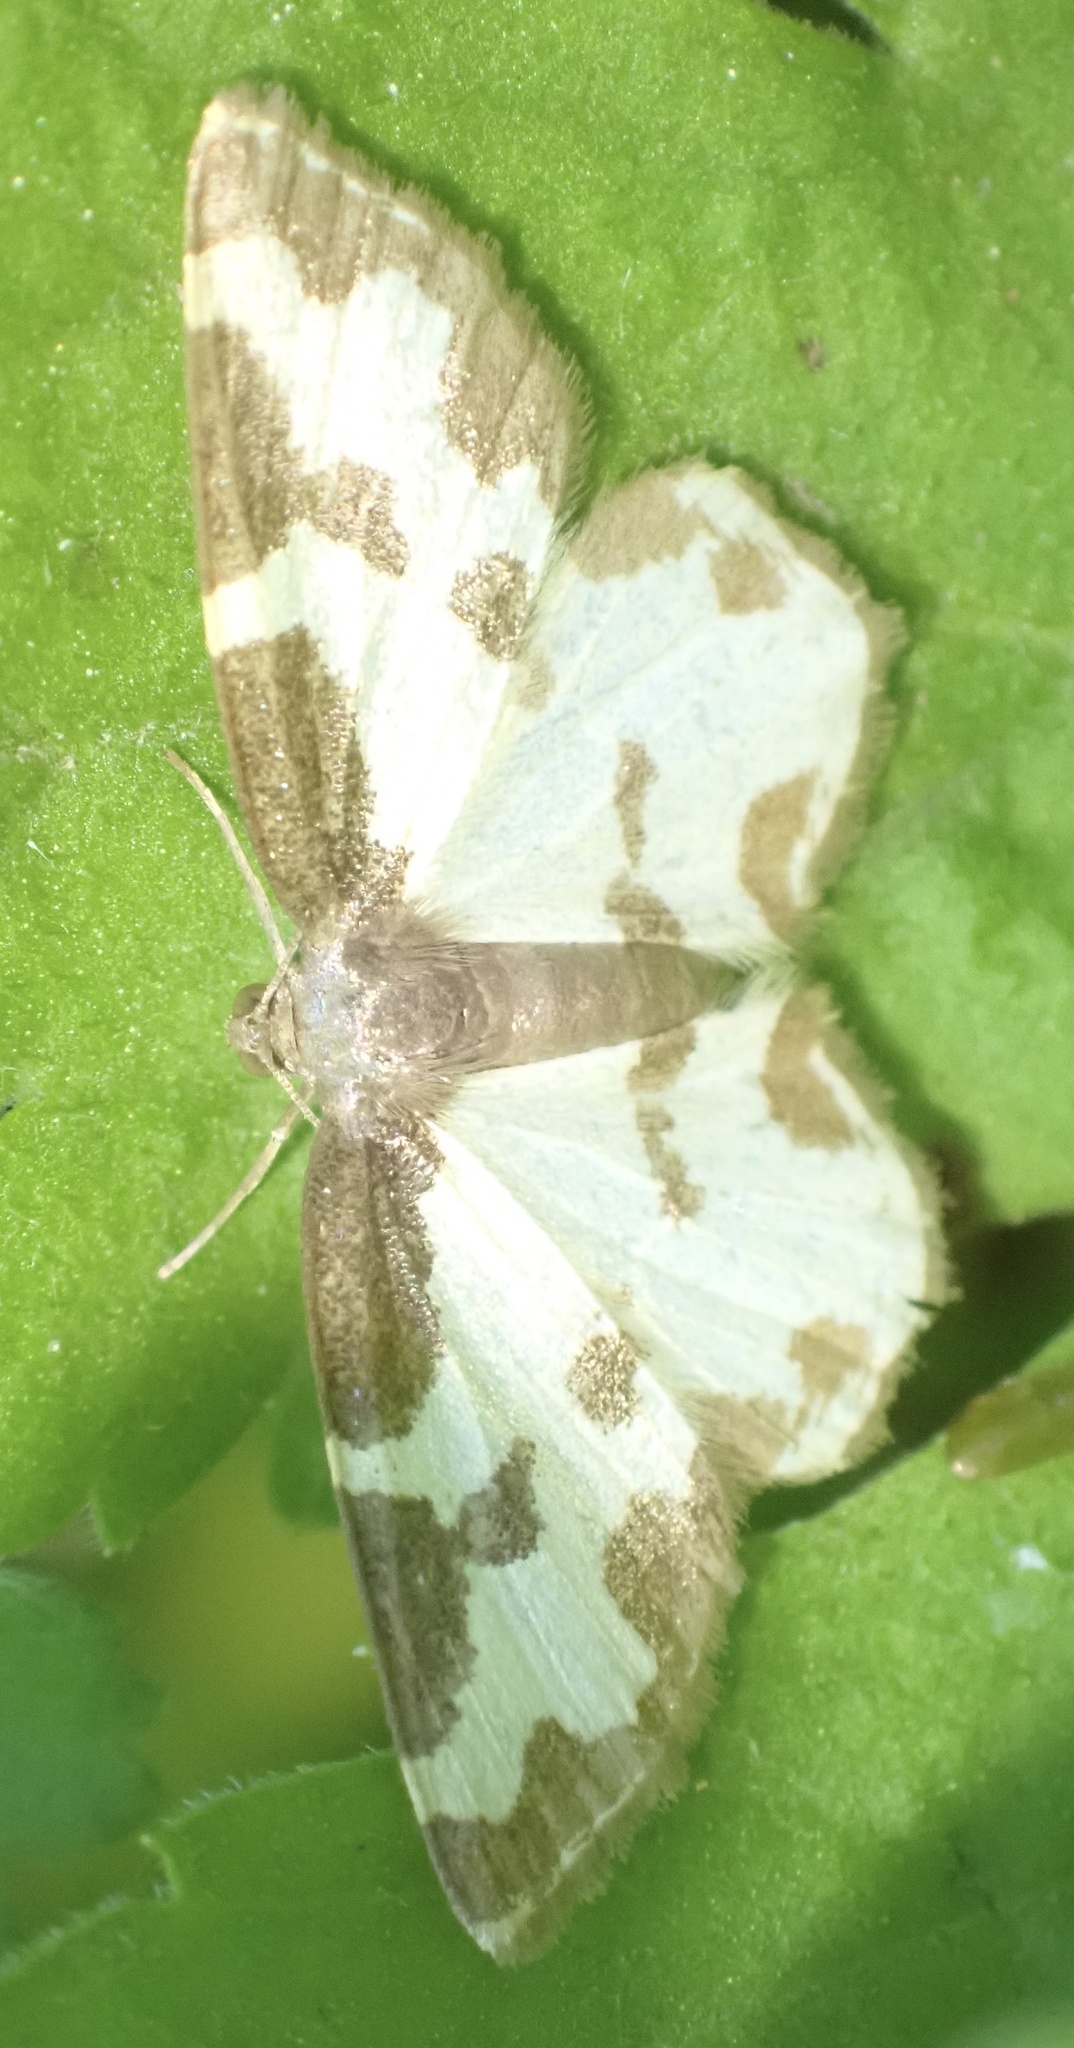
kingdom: Animalia
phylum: Arthropoda
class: Insecta
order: Lepidoptera
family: Geometridae
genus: Lomaspilis
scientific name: Lomaspilis marginata
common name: Clouded border
